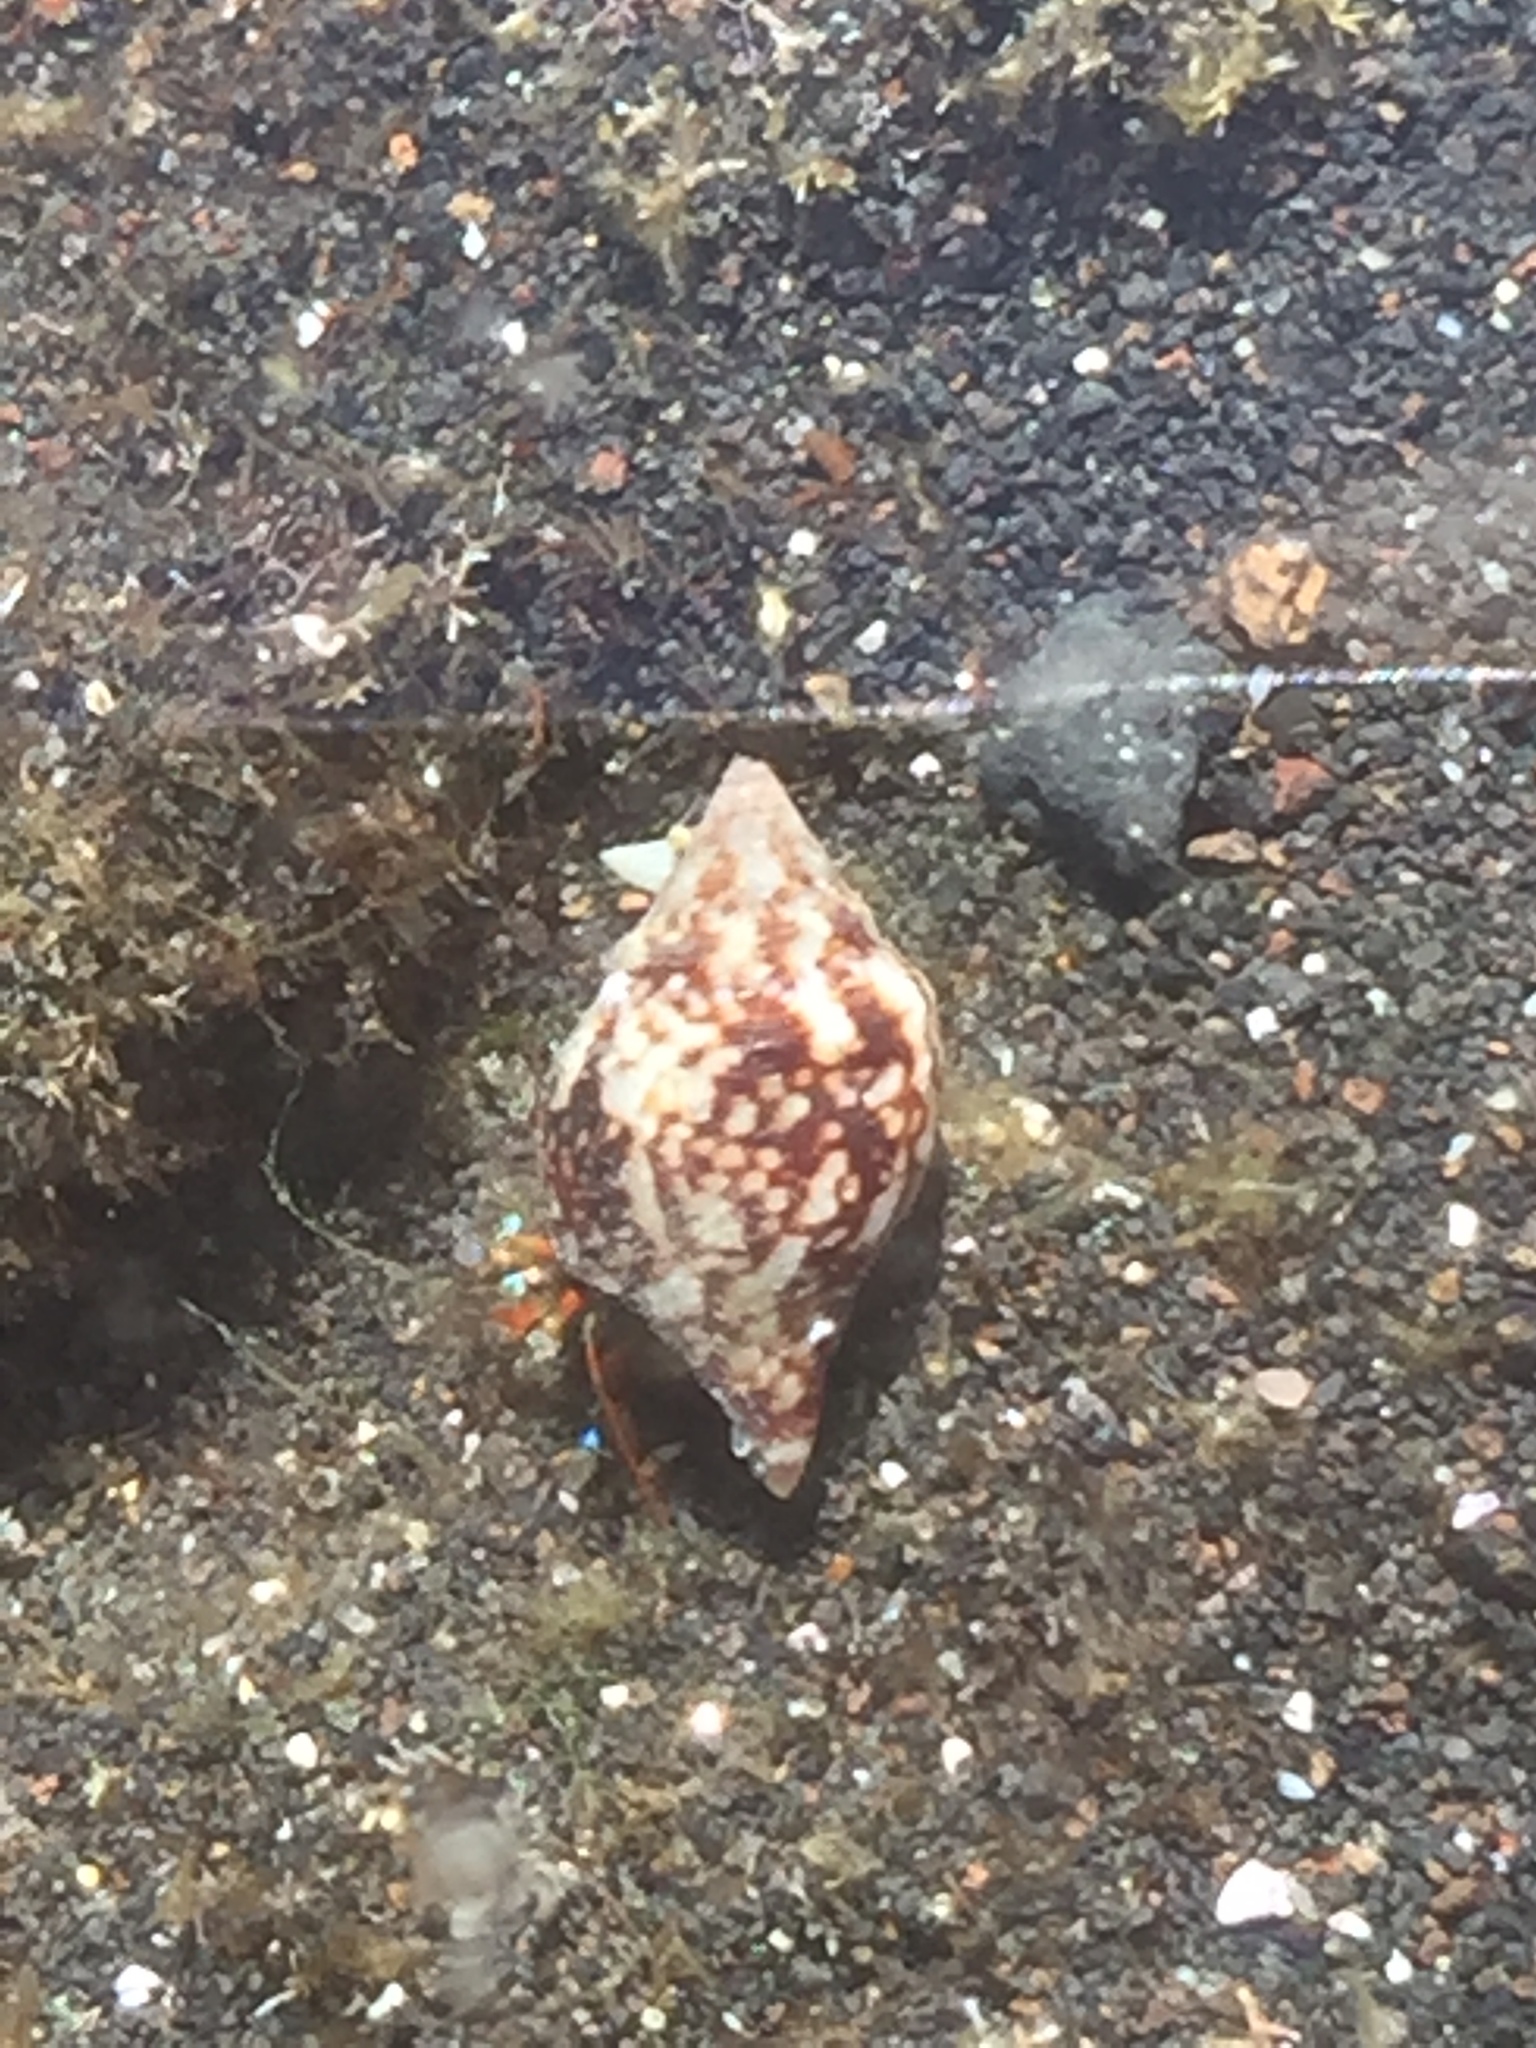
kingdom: Animalia
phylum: Mollusca
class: Gastropoda
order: Neogastropoda
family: Columbellidae
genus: Columbella
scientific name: Columbella adansoni
